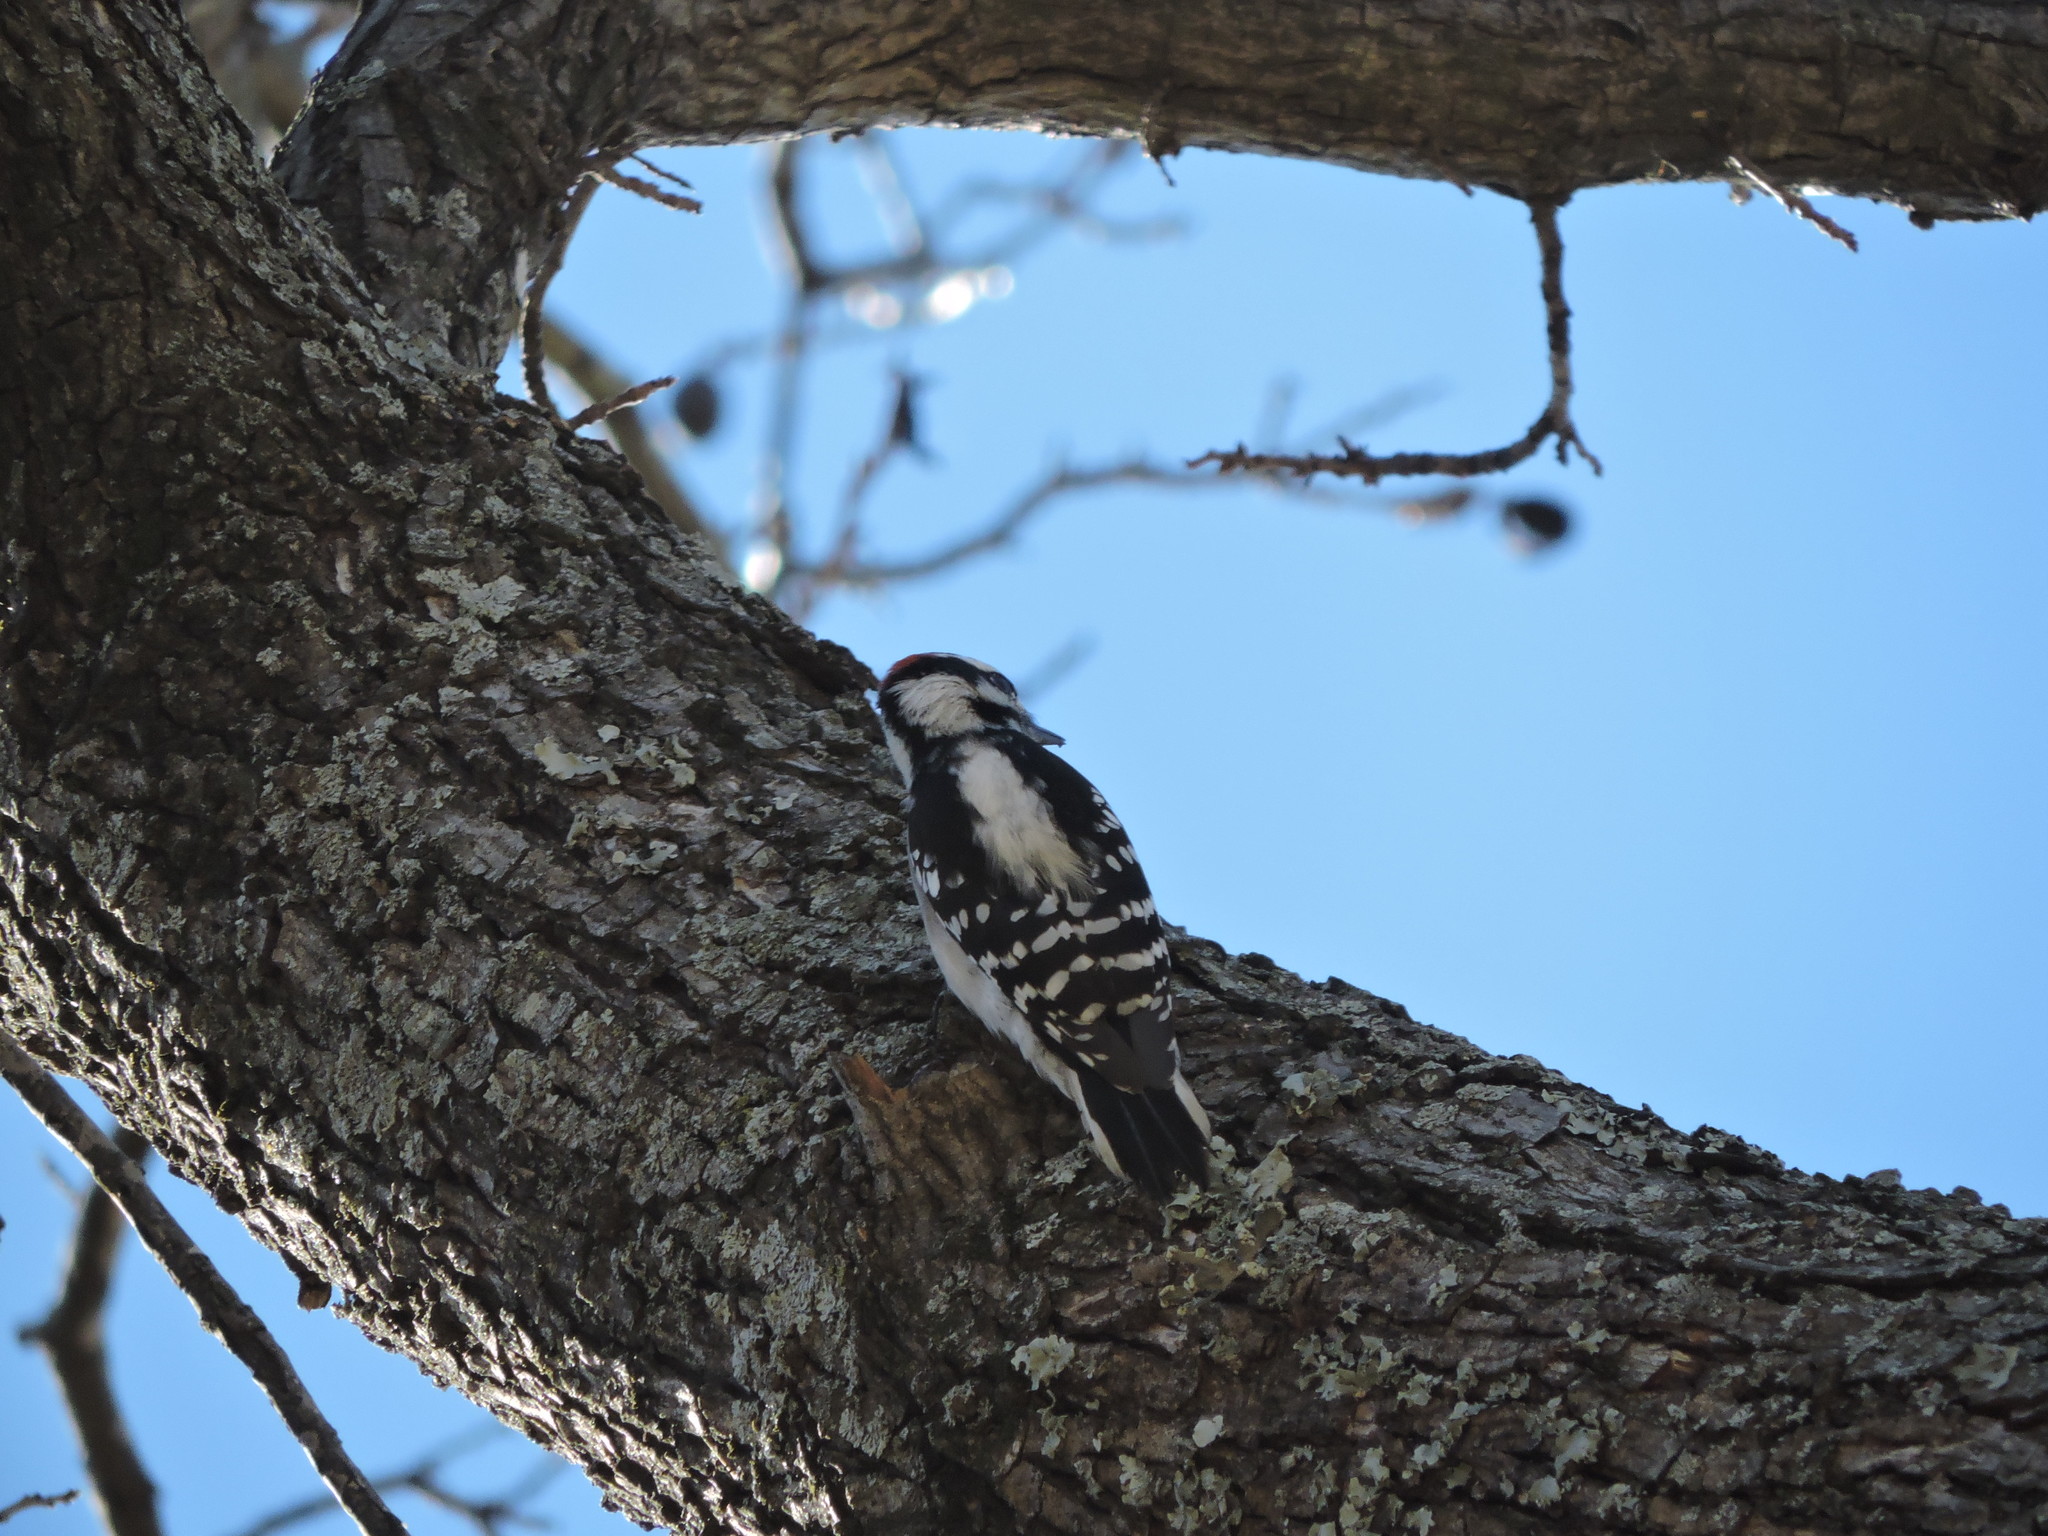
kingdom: Animalia
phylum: Chordata
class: Aves
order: Piciformes
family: Picidae
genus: Dryobates
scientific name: Dryobates pubescens
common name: Downy woodpecker
